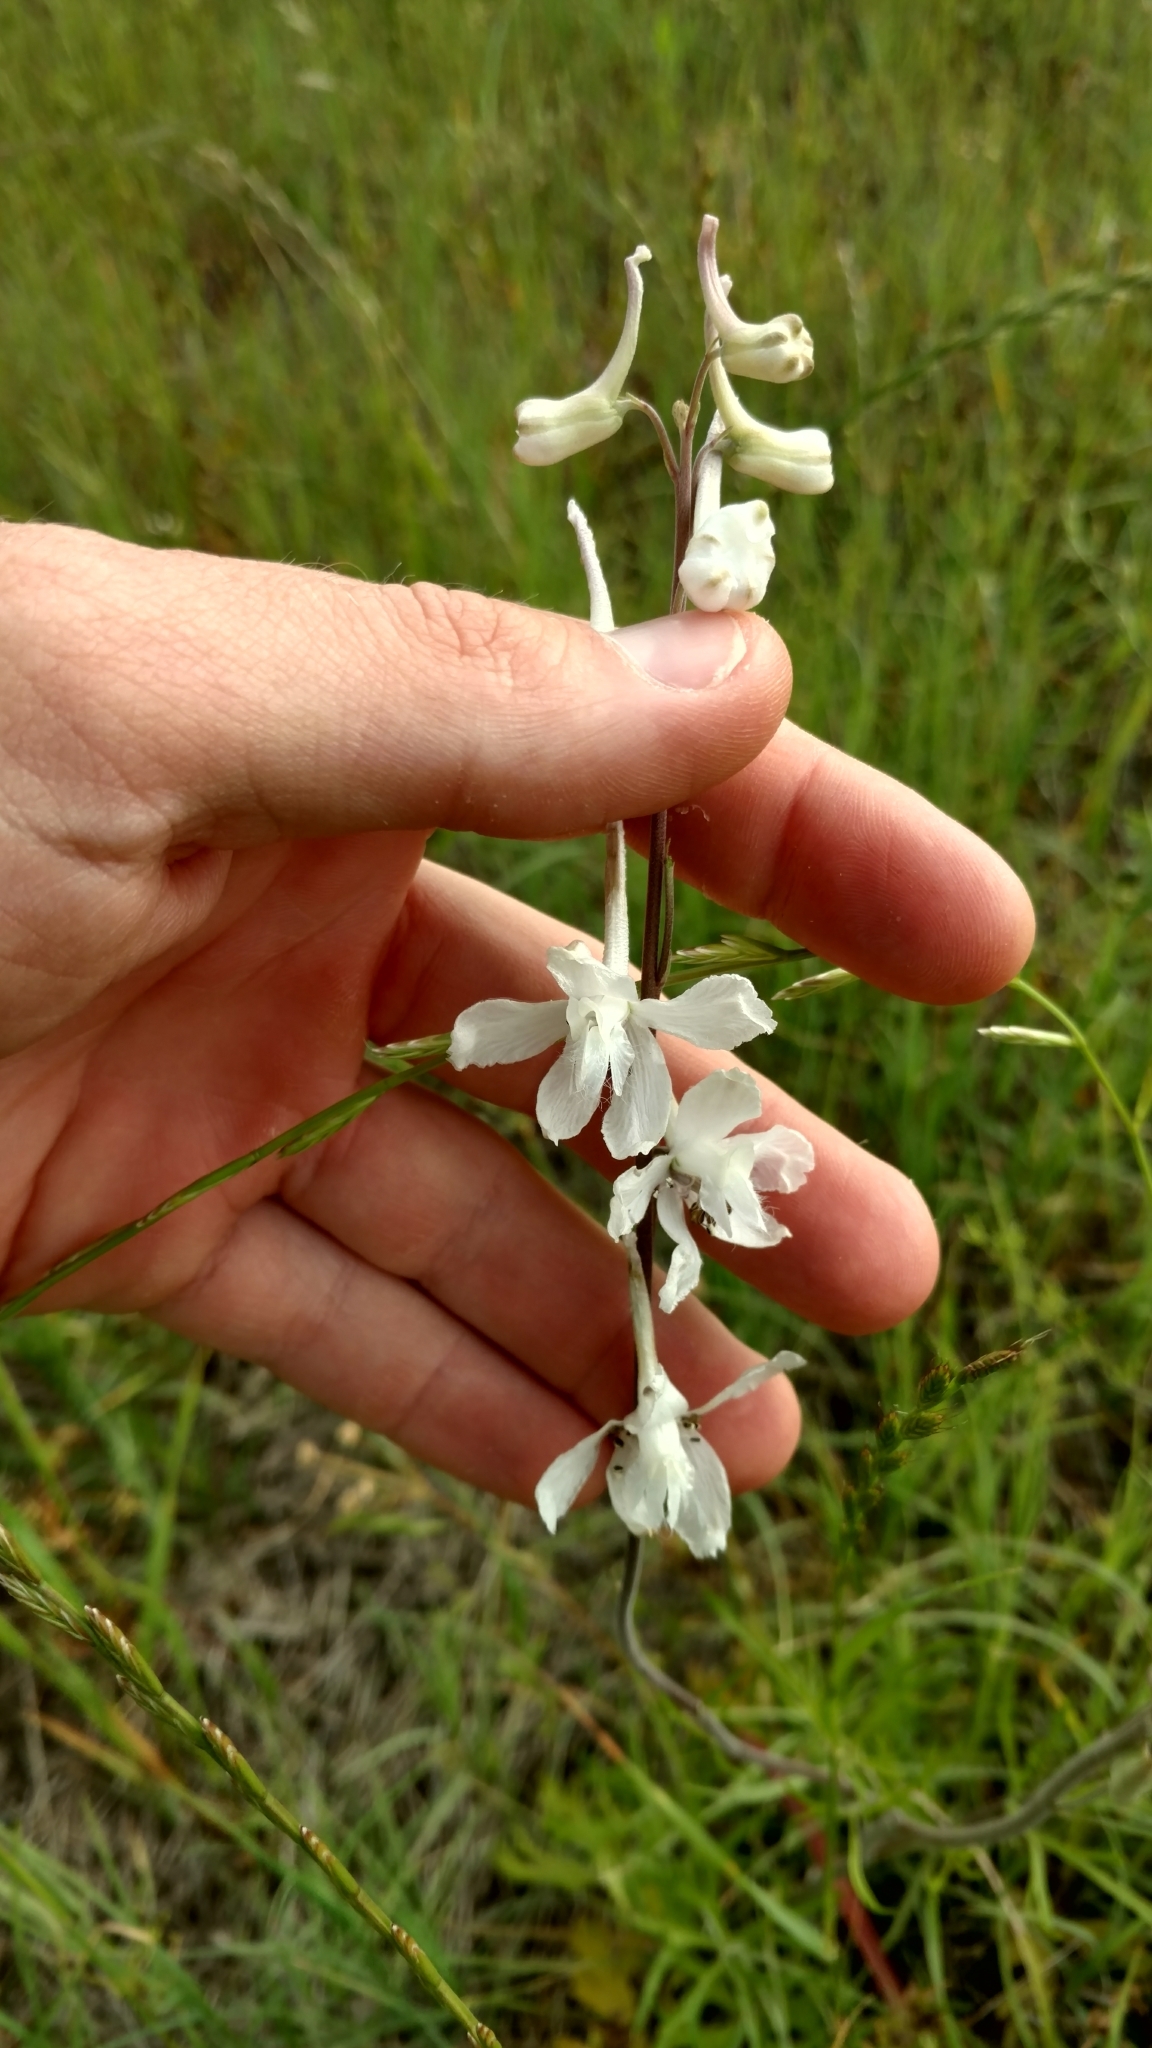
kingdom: Plantae
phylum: Tracheophyta
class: Magnoliopsida
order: Ranunculales
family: Ranunculaceae
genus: Delphinium
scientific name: Delphinium carolinianum
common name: Carolina larkspur
